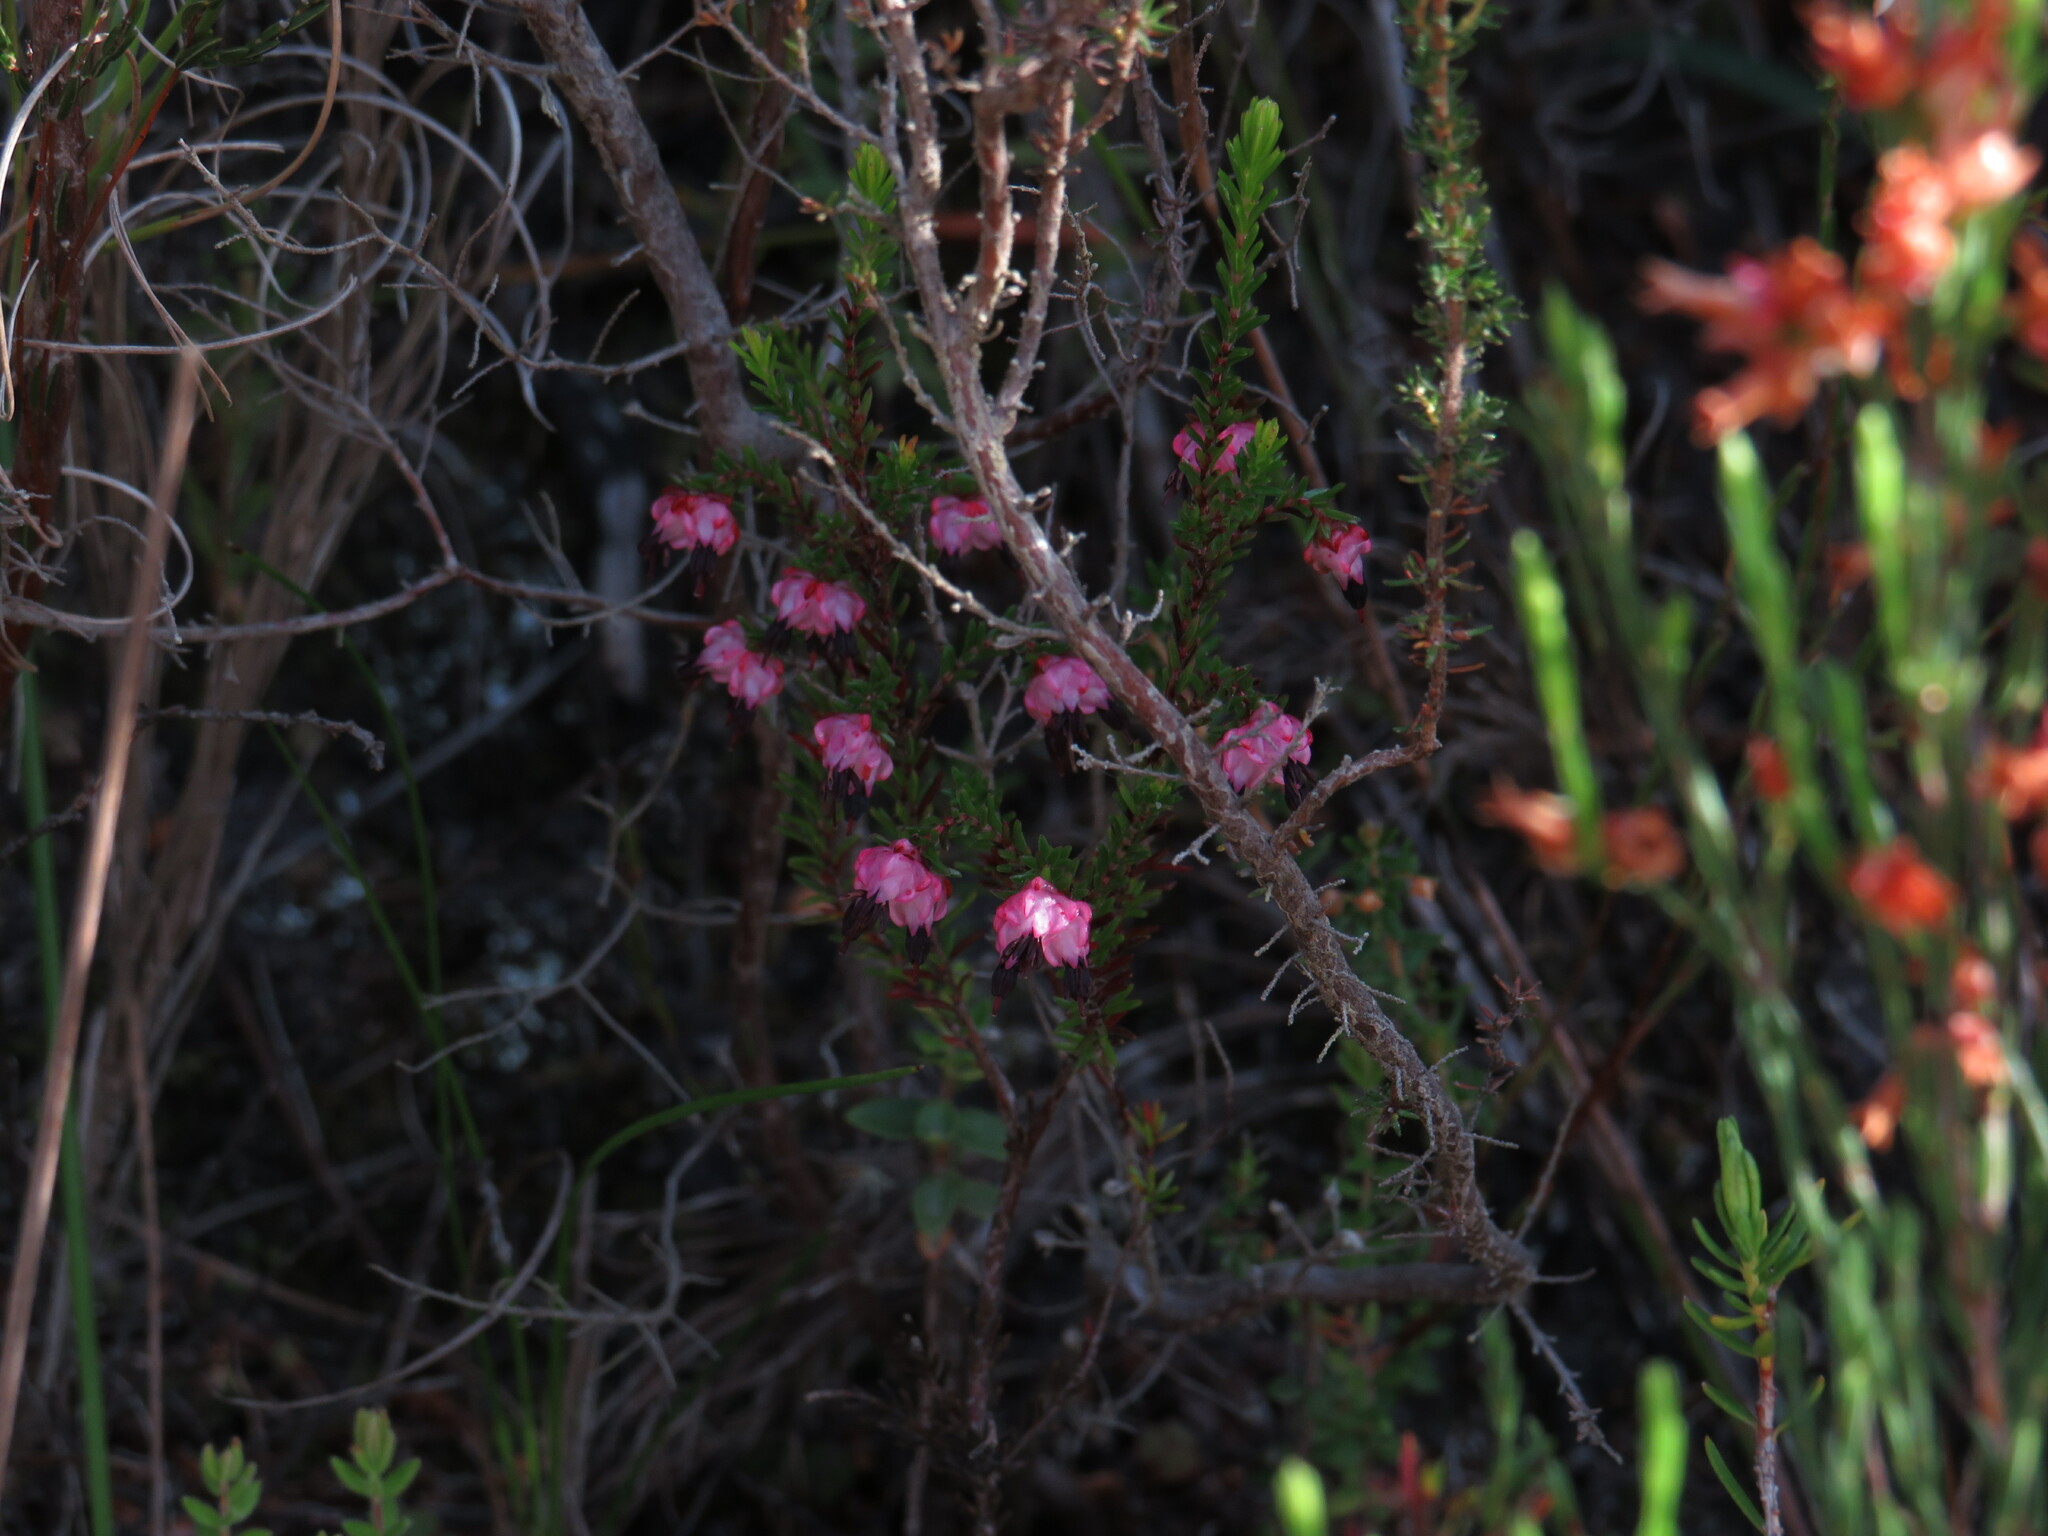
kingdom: Plantae
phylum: Tracheophyta
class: Magnoliopsida
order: Ericales
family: Ericaceae
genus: Erica
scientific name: Erica spumosa
